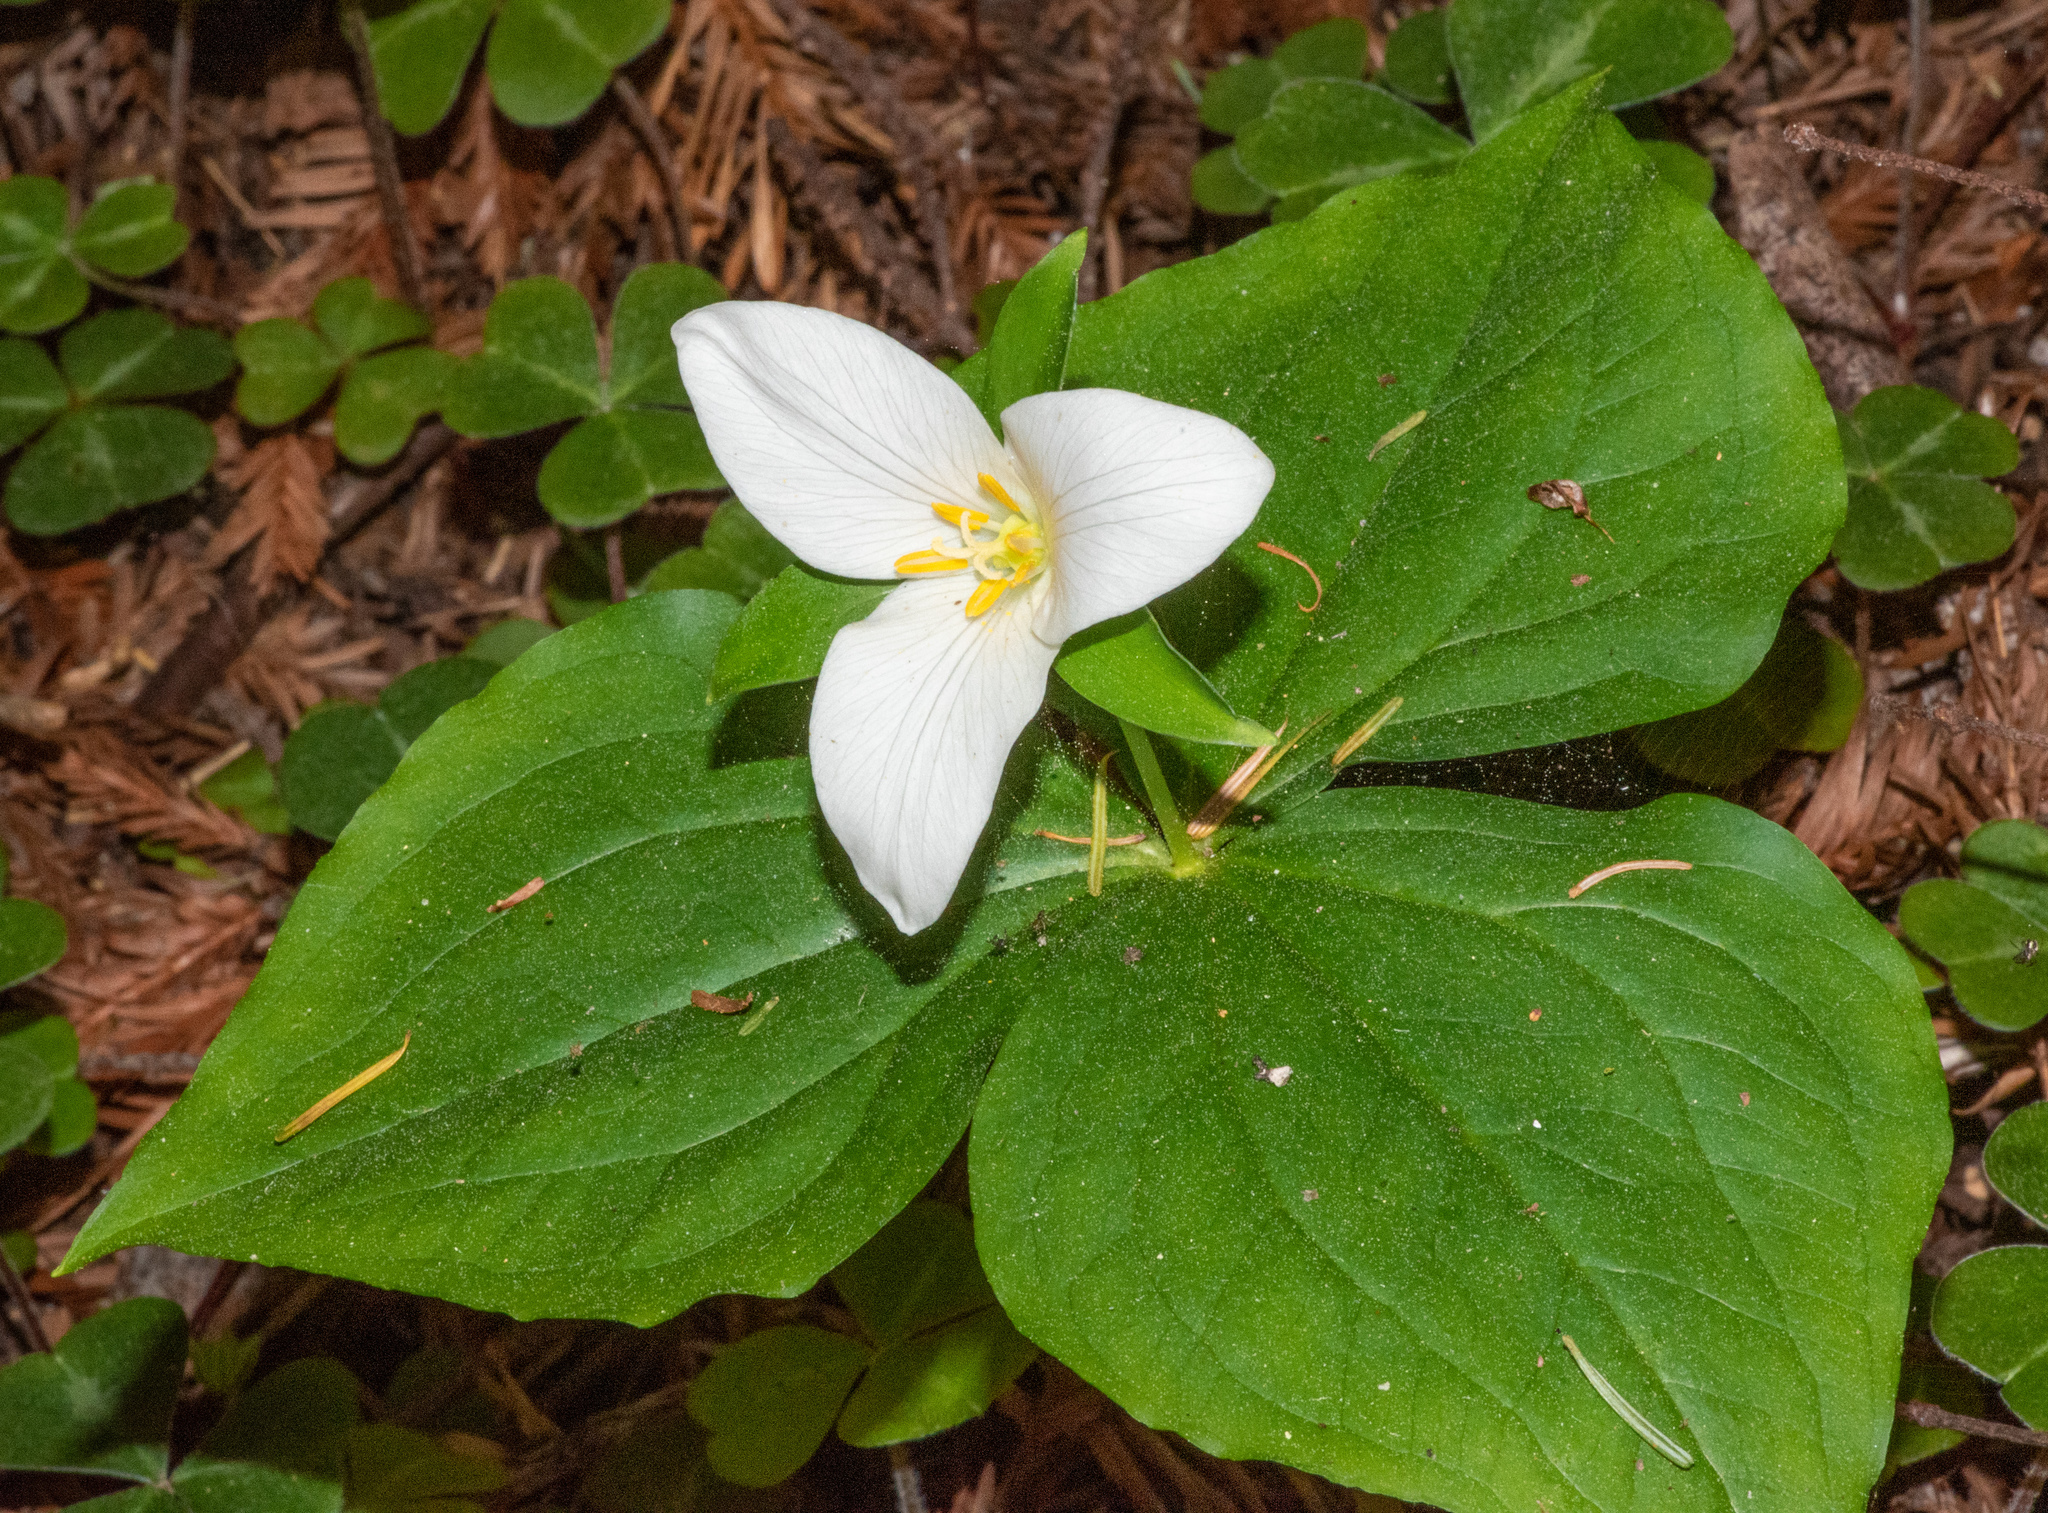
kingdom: Plantae
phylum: Tracheophyta
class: Liliopsida
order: Liliales
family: Melanthiaceae
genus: Trillium
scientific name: Trillium ovatum
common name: Pacific trillium
